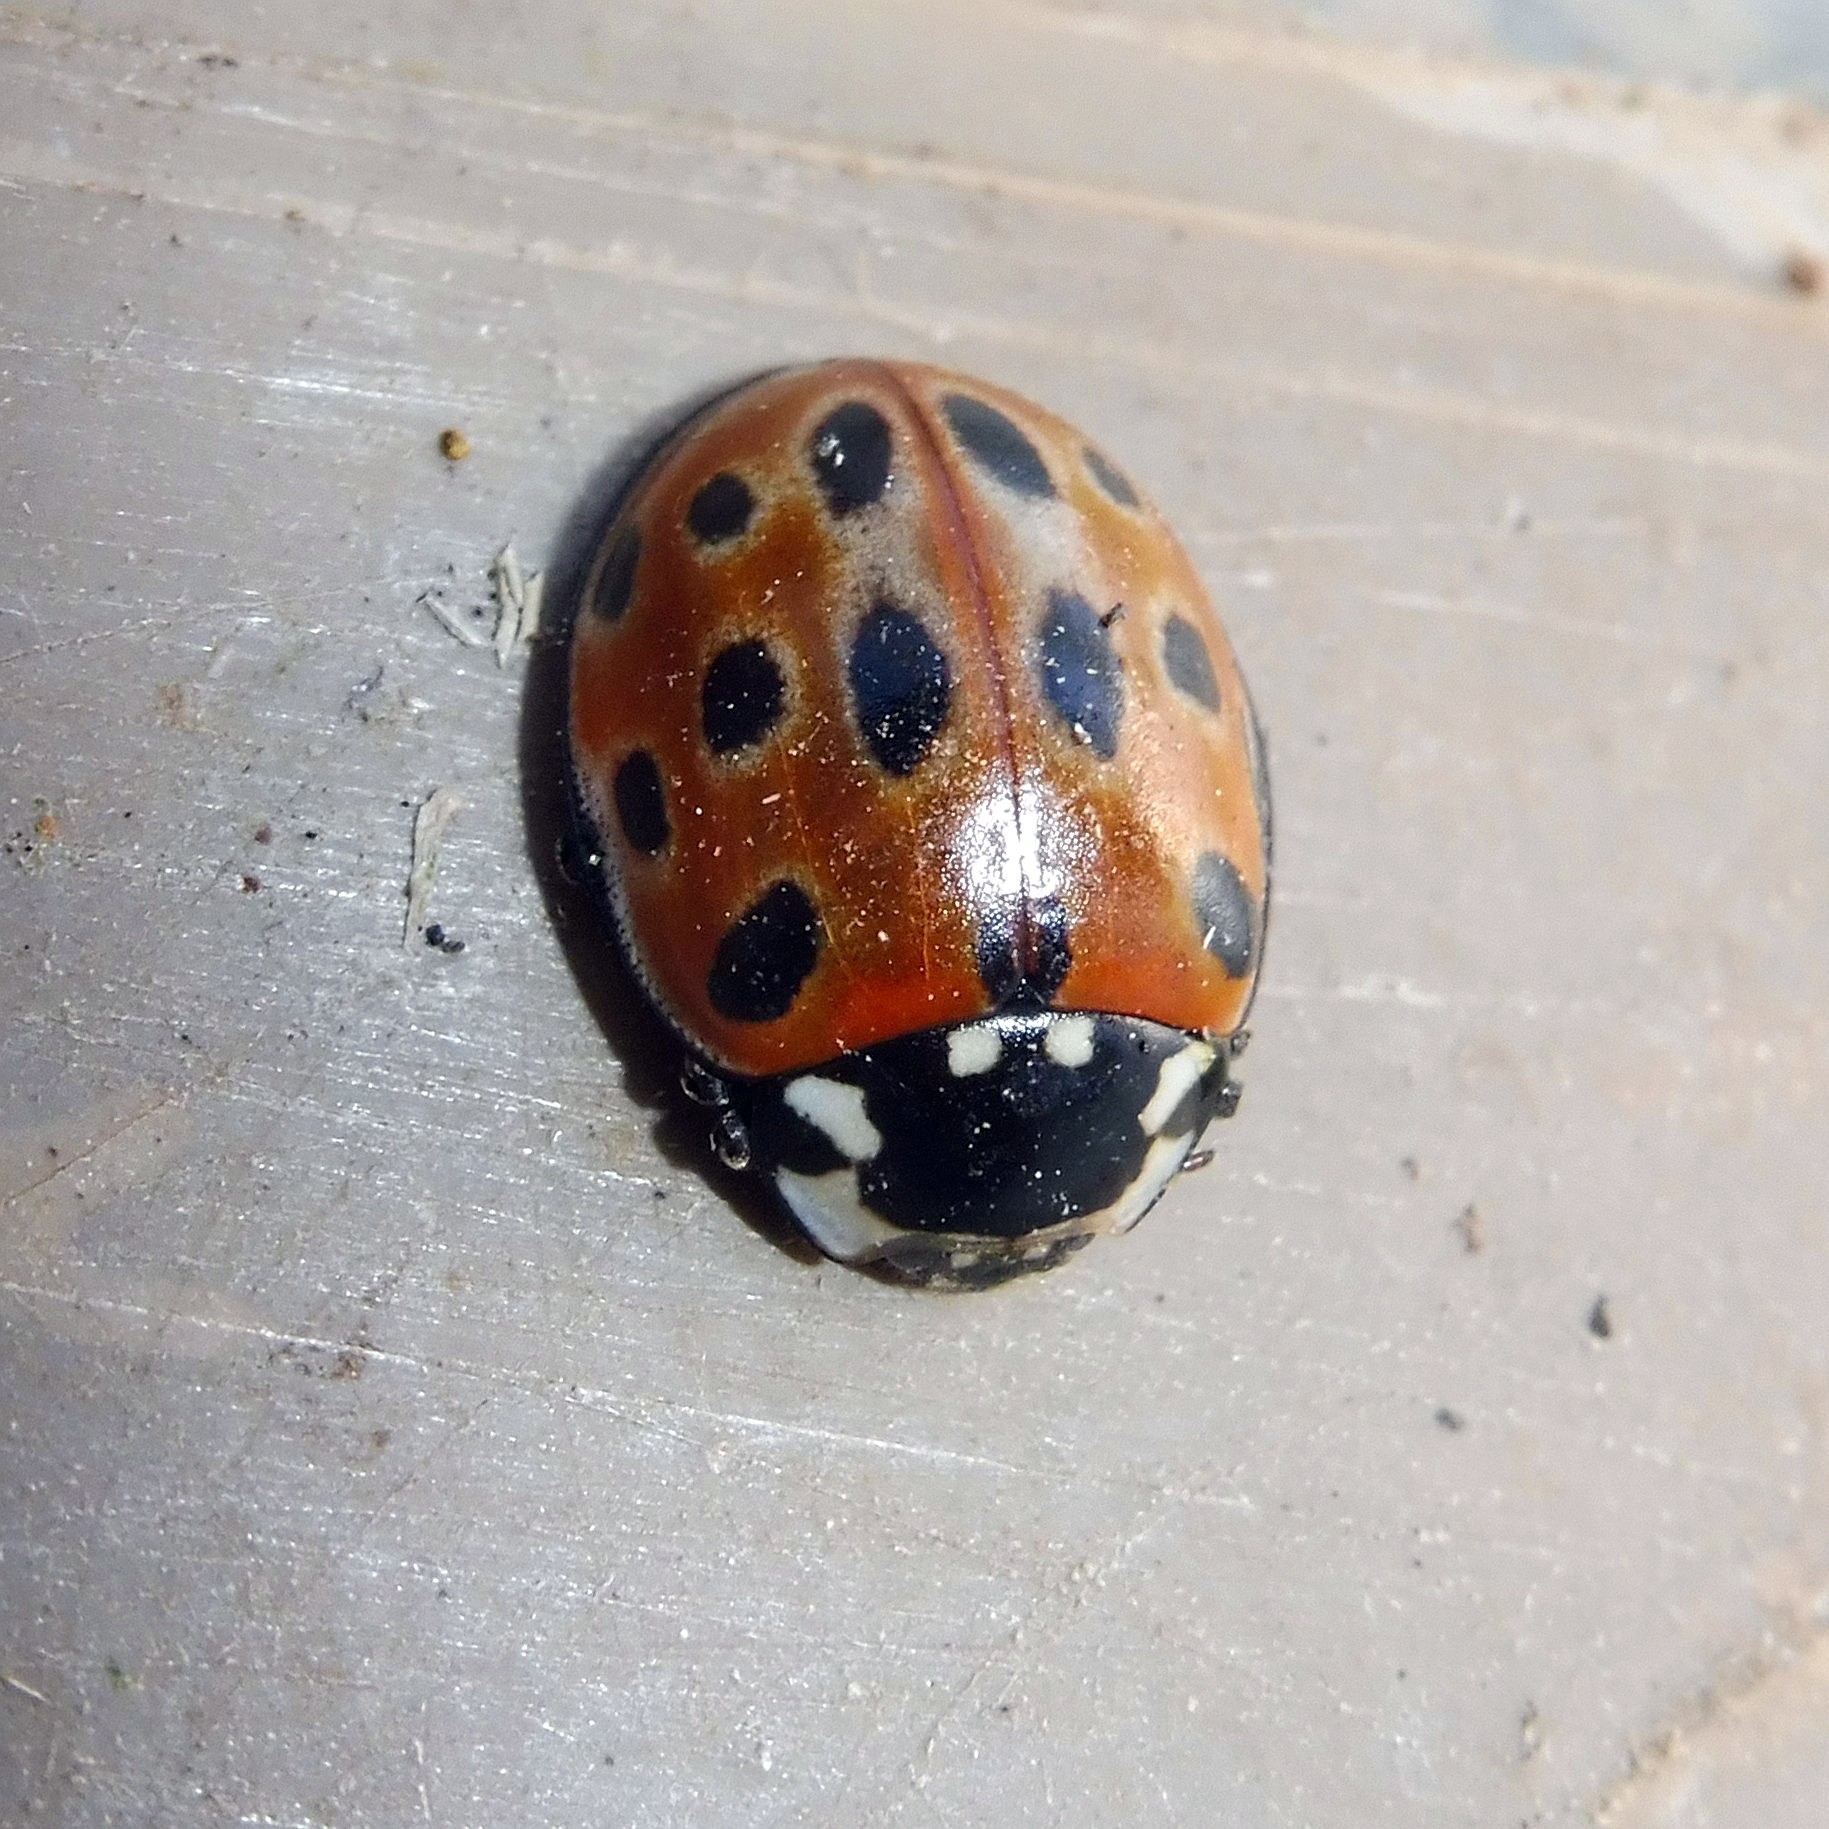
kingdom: Animalia
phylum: Arthropoda
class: Insecta
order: Coleoptera
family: Coccinellidae
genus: Anatis
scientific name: Anatis ocellata
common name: Eyed ladybird
